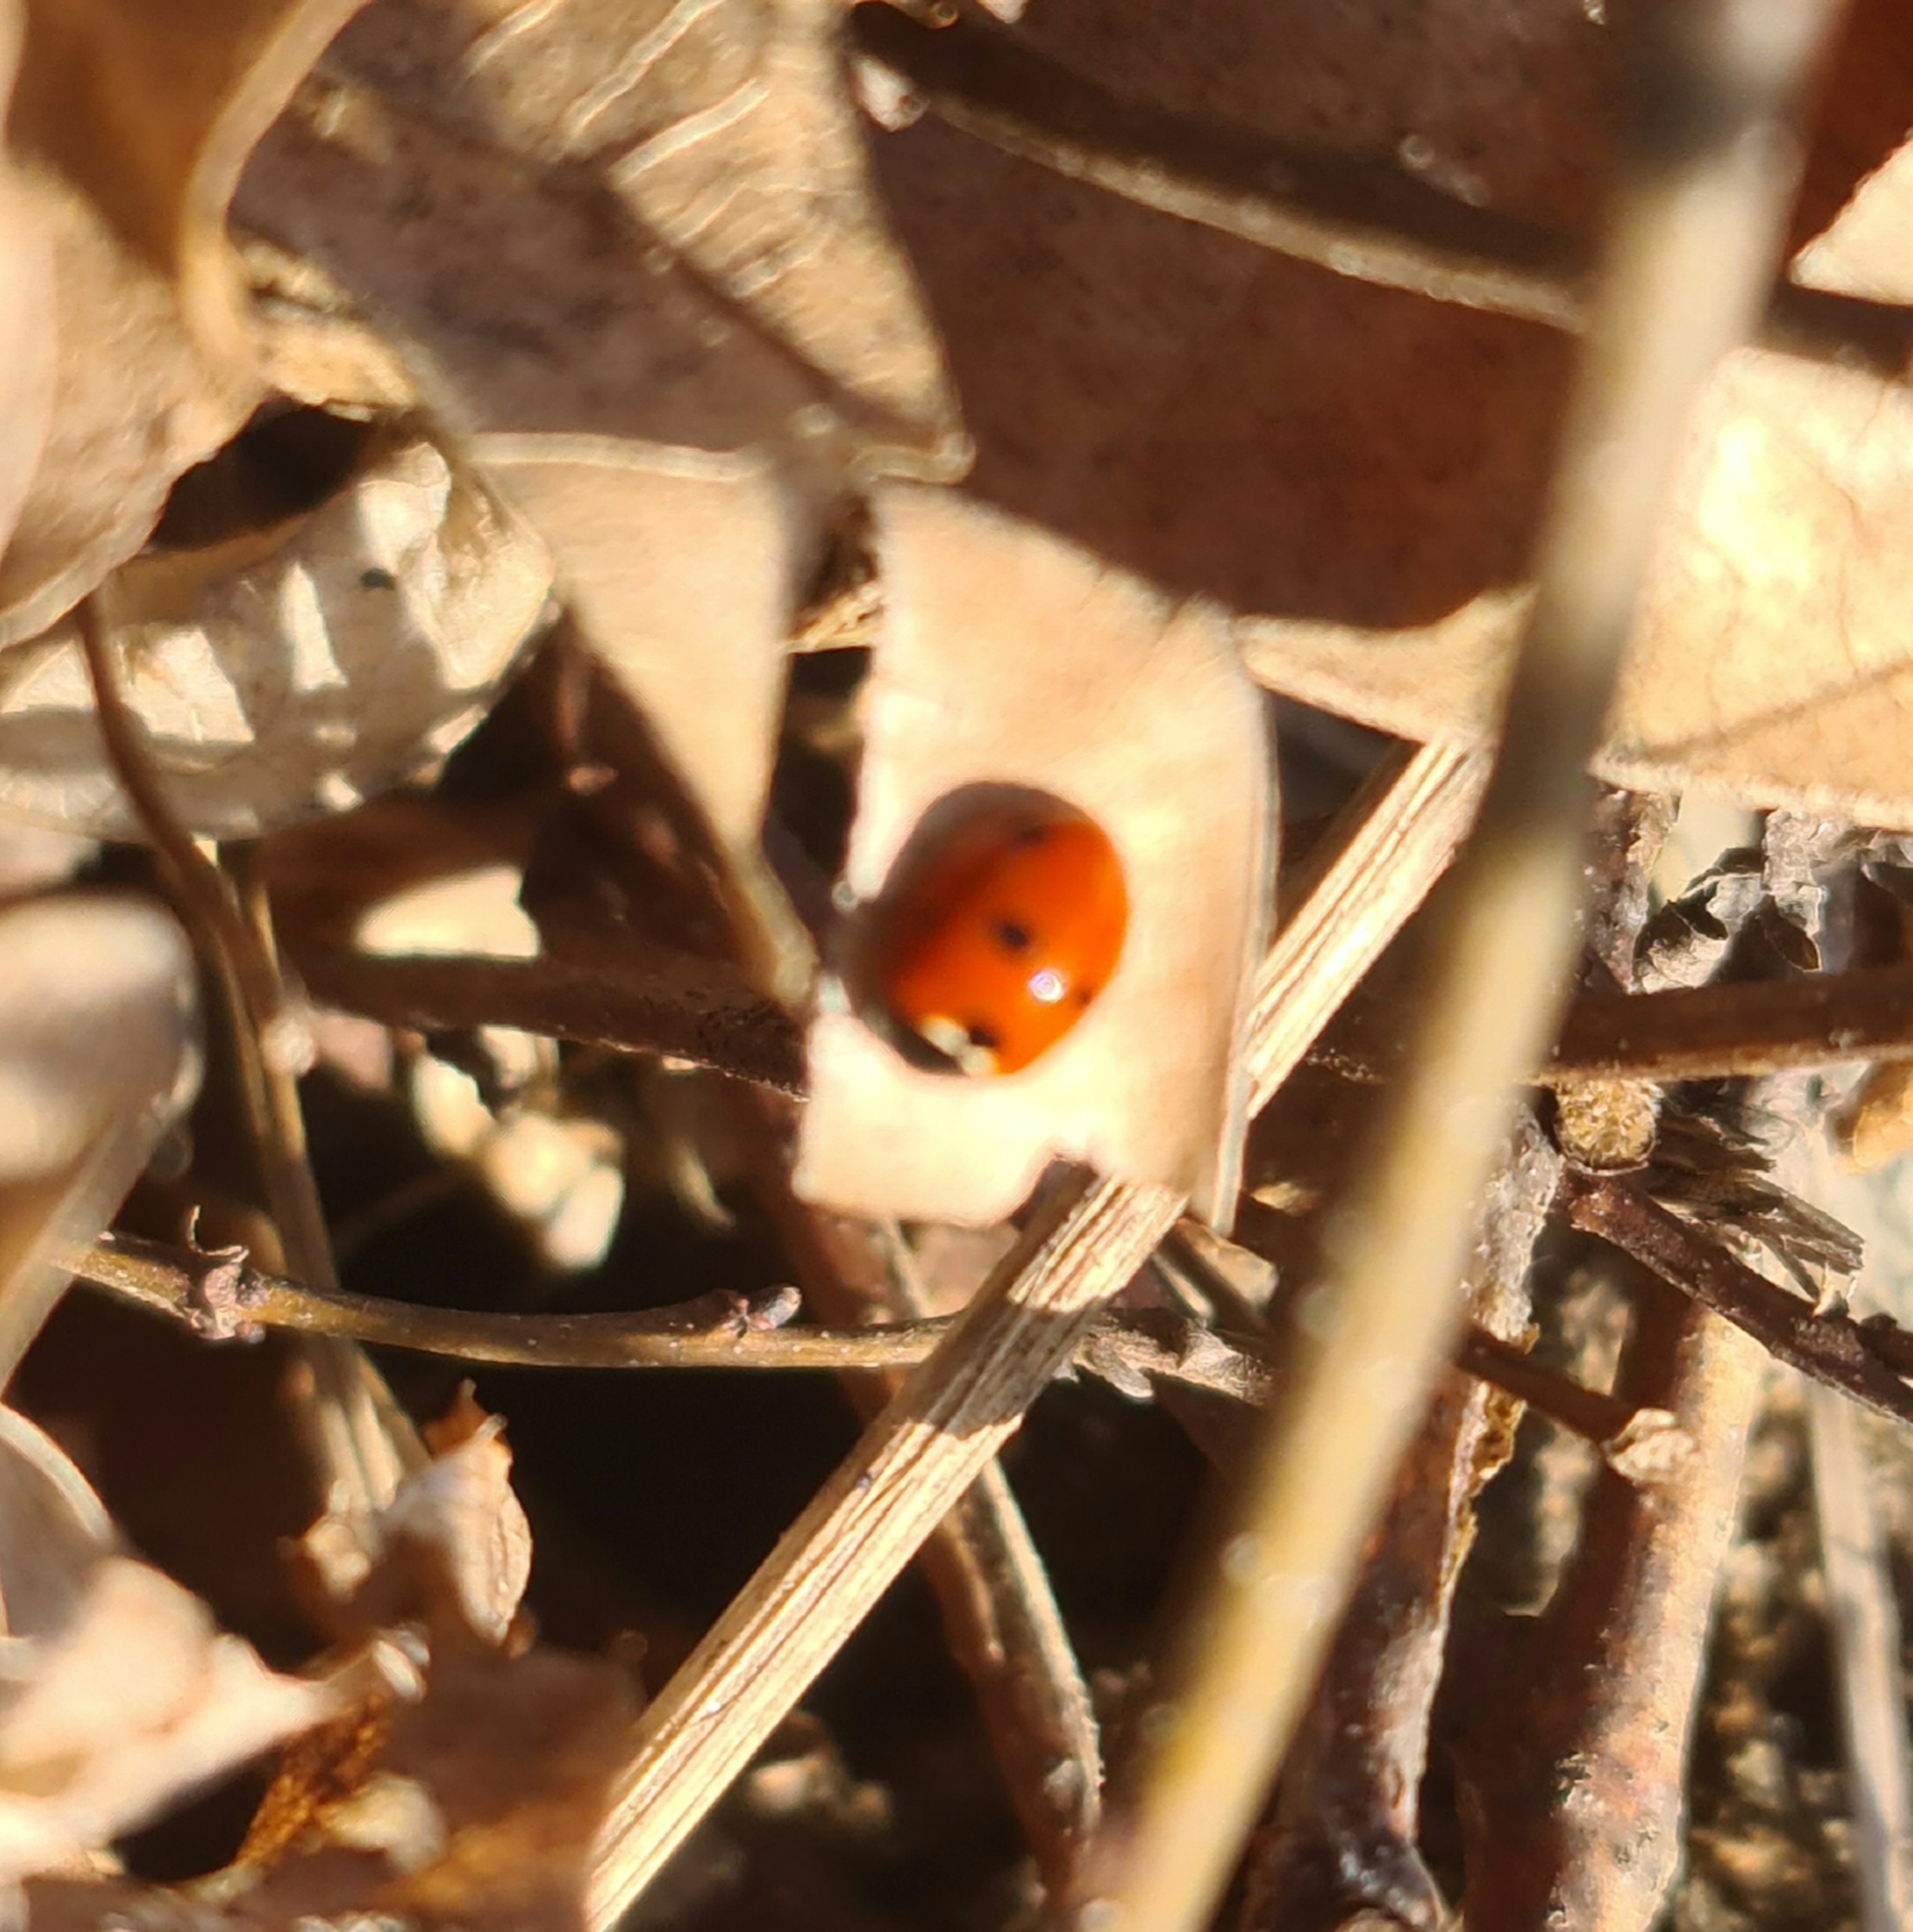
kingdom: Animalia
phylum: Arthropoda
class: Insecta
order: Coleoptera
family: Coccinellidae
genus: Coccinella
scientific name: Coccinella septempunctata
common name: Sevenspotted lady beetle
